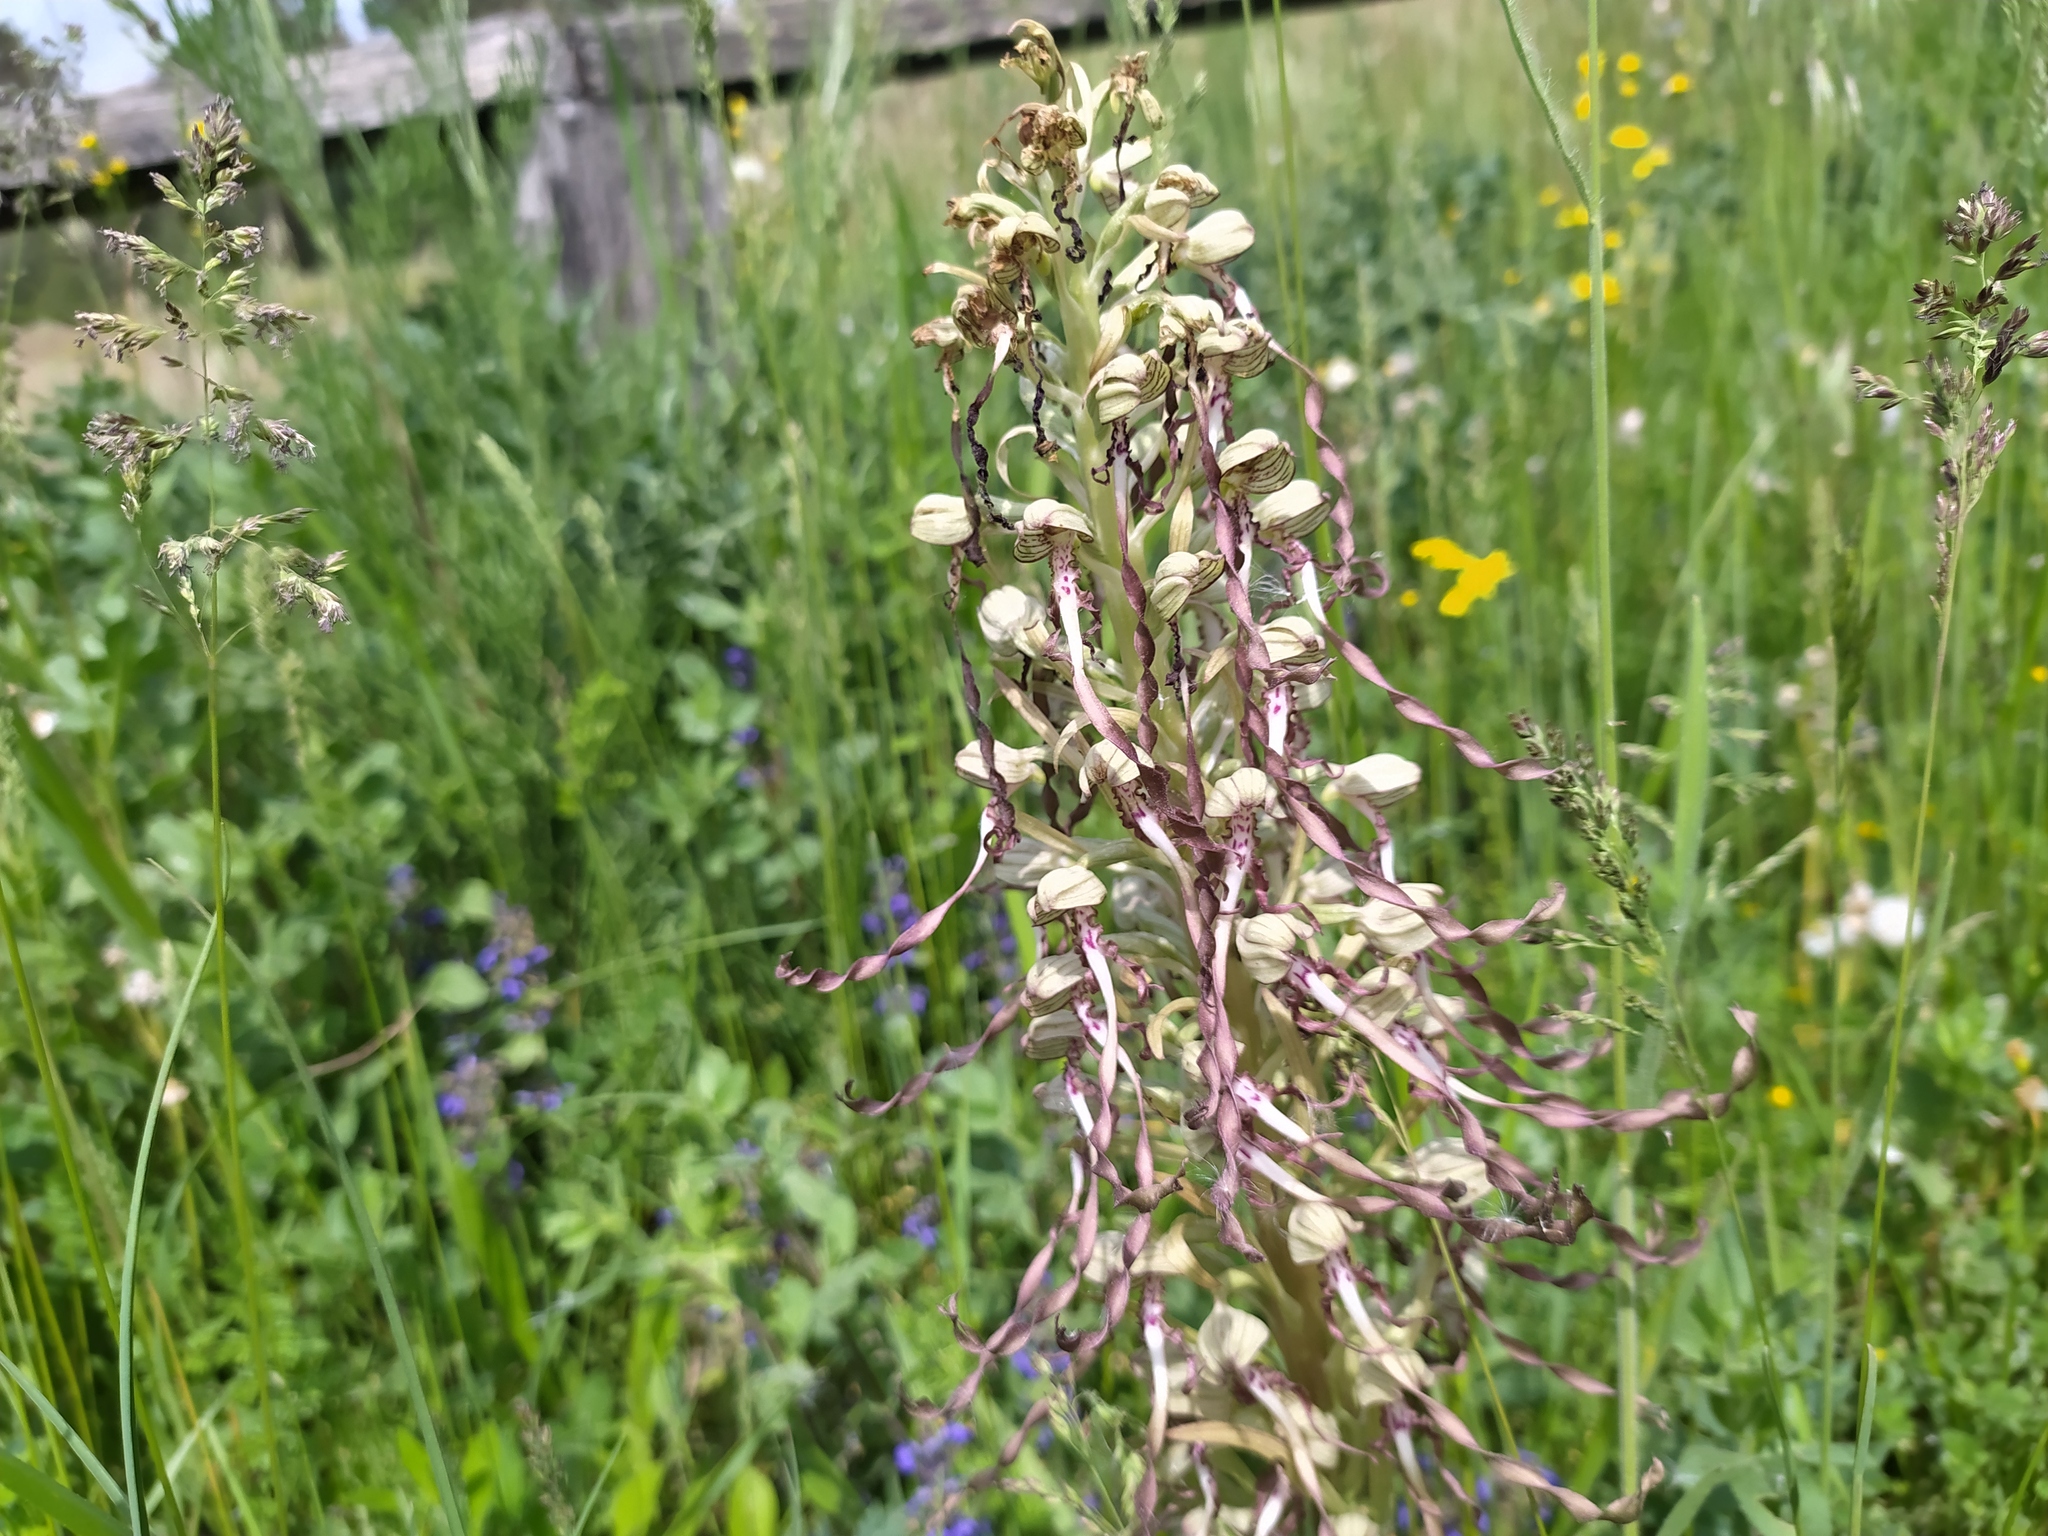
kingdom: Plantae
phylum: Tracheophyta
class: Liliopsida
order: Asparagales
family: Orchidaceae
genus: Himantoglossum
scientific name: Himantoglossum hircinum
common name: Lizard orchid
